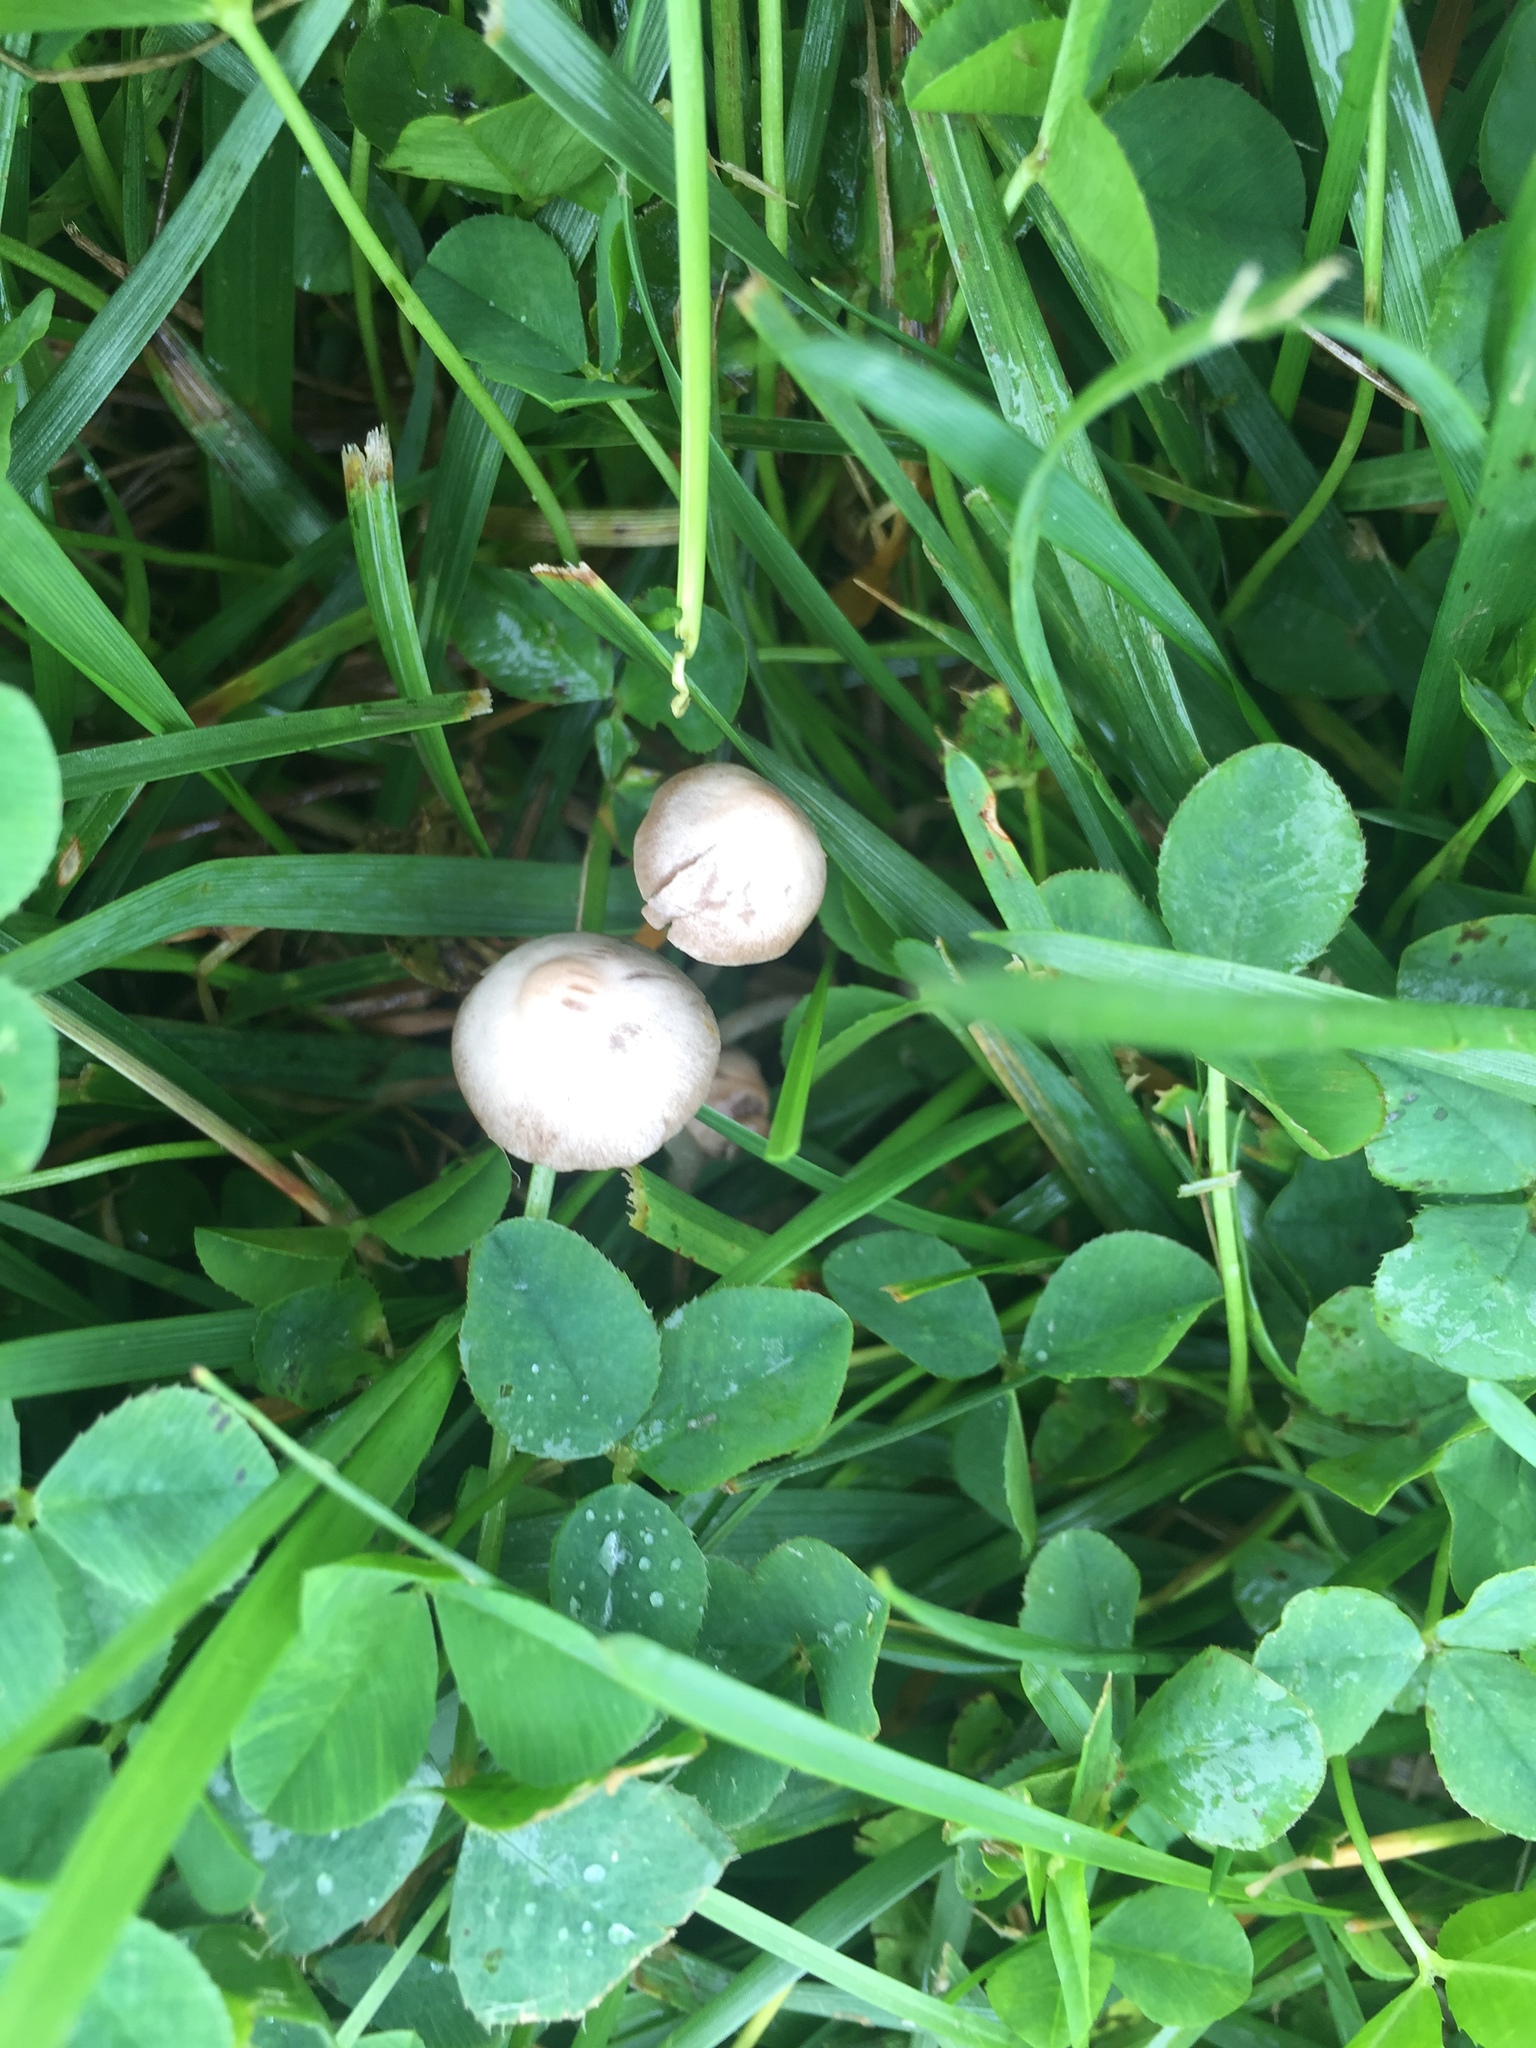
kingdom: Fungi
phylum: Basidiomycota
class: Agaricomycetes
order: Agaricales
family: Bolbitiaceae
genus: Panaeolina
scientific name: Panaeolina foenisecii
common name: Brown hay cap
